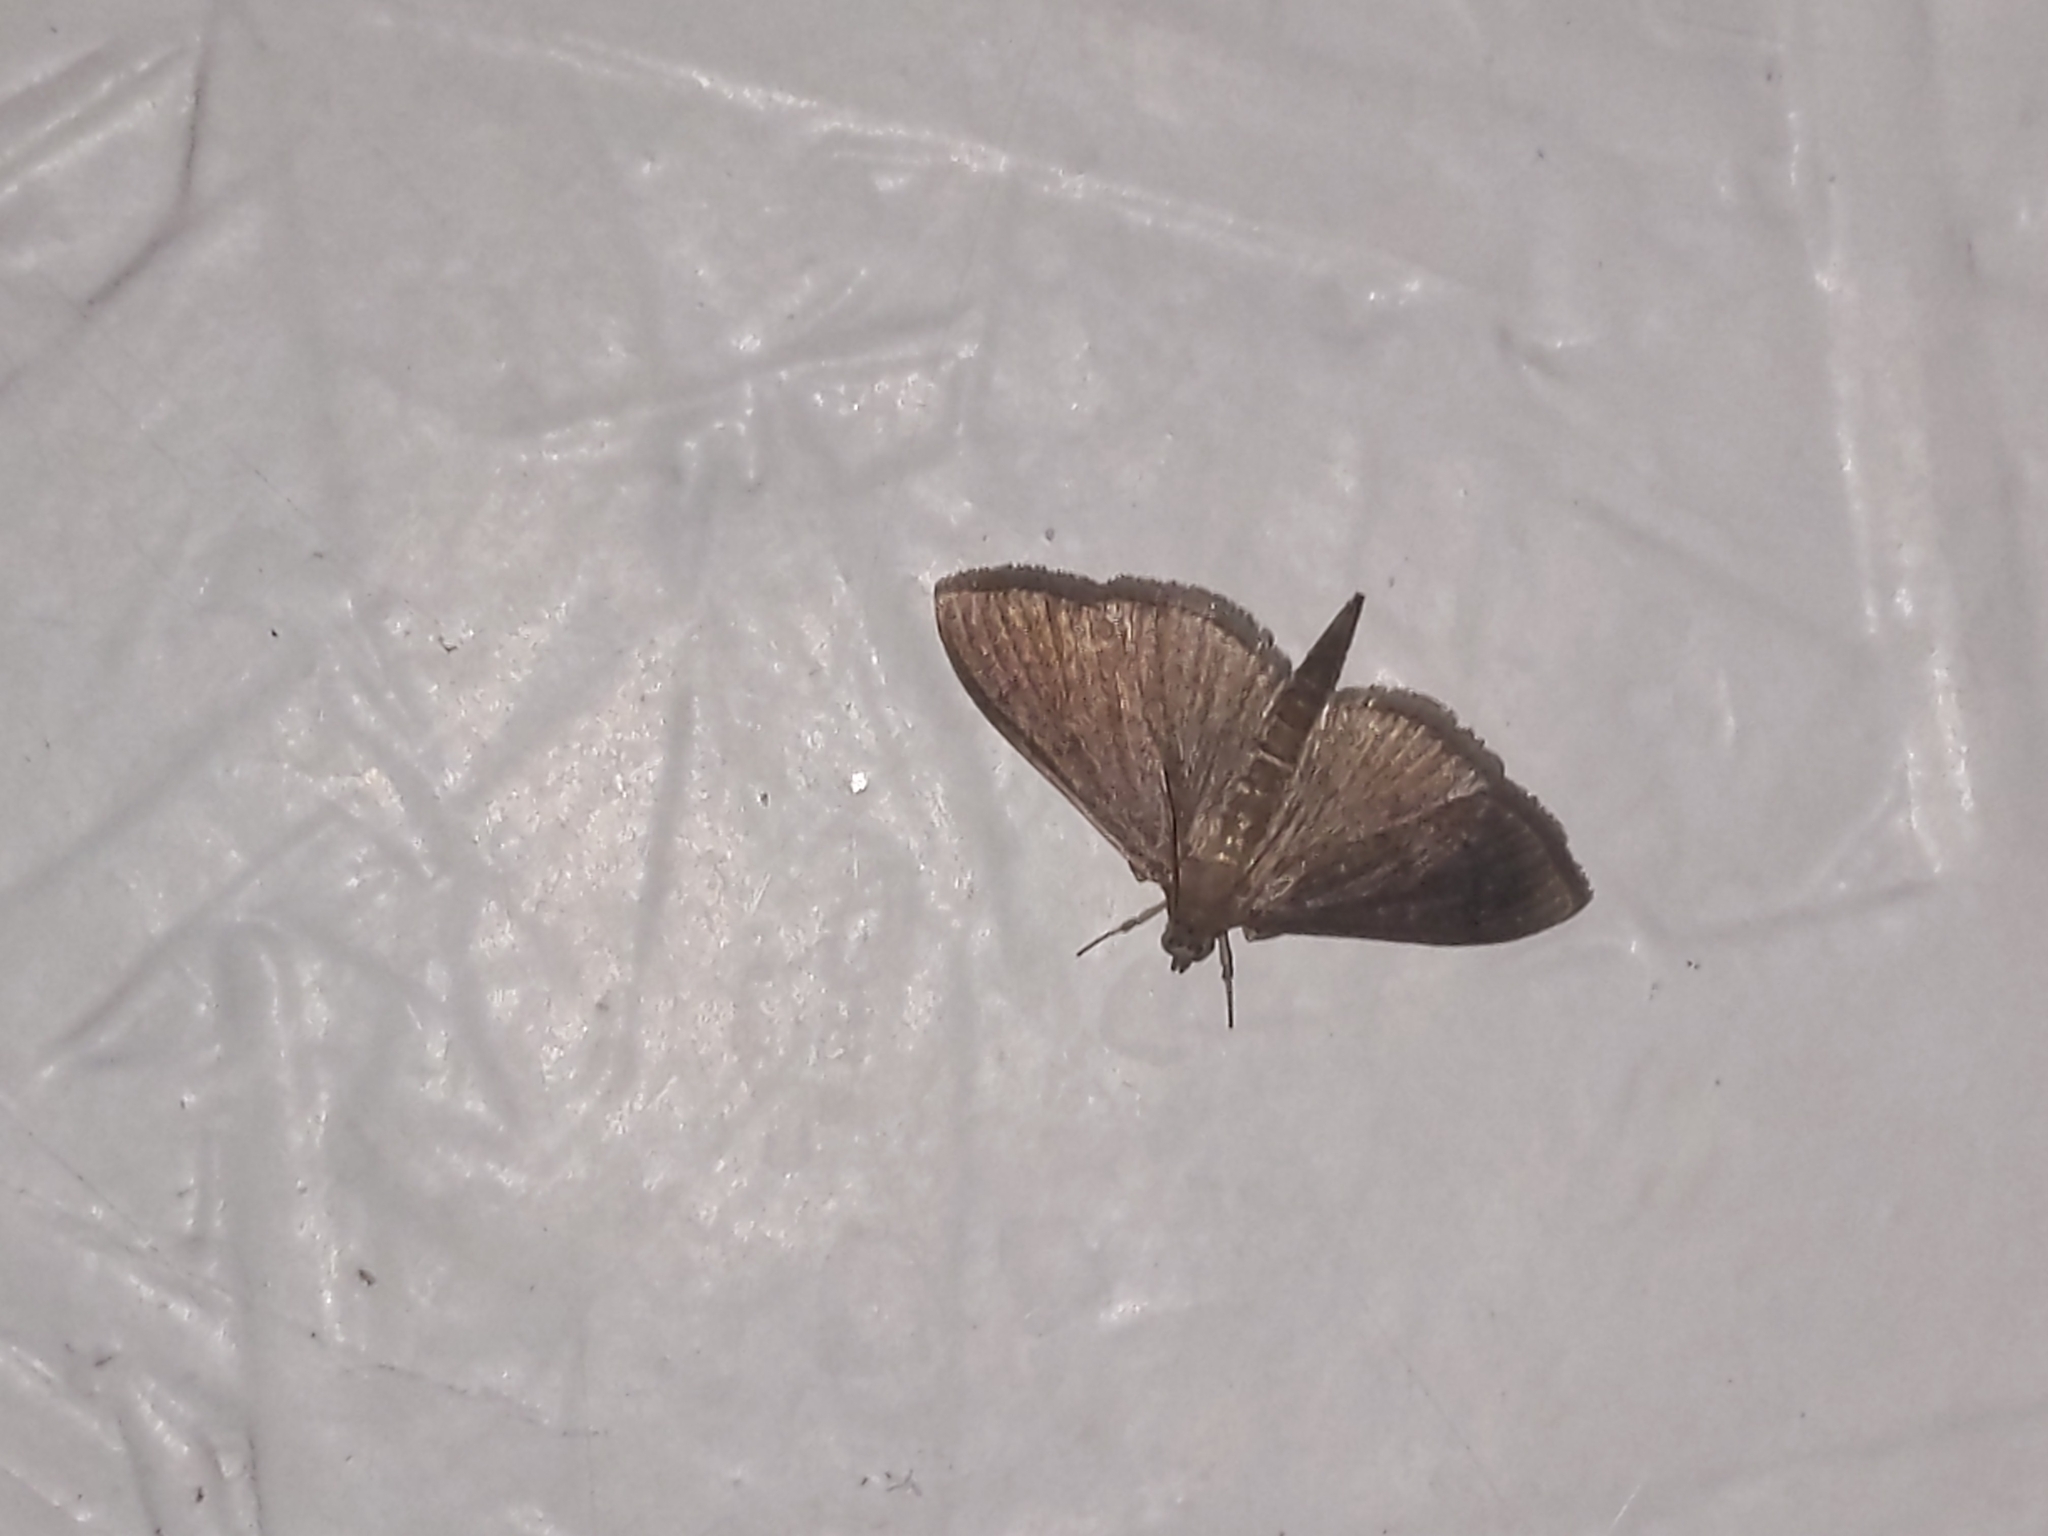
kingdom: Animalia
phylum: Arthropoda
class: Insecta
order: Lepidoptera
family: Crambidae
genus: Herpetogramma
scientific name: Herpetogramma sphingealis
